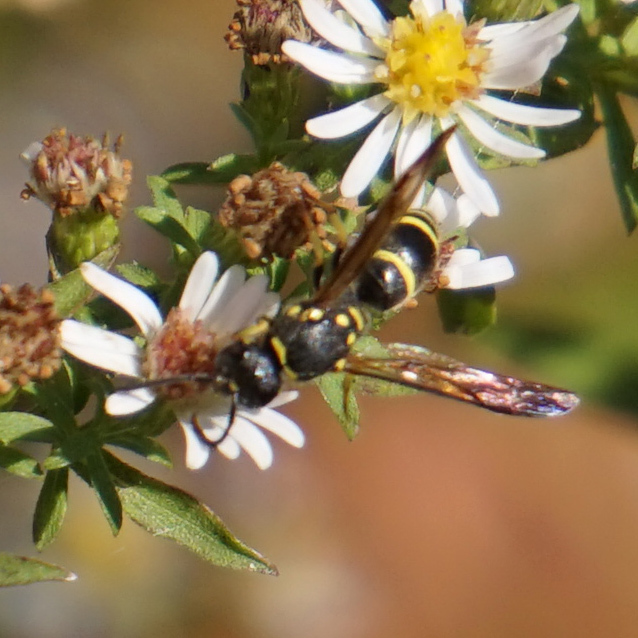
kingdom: Animalia
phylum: Arthropoda
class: Insecta
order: Hymenoptera
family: Vespidae
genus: Ancistrocerus
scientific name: Ancistrocerus adiabatus
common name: Bramble mason wasp
